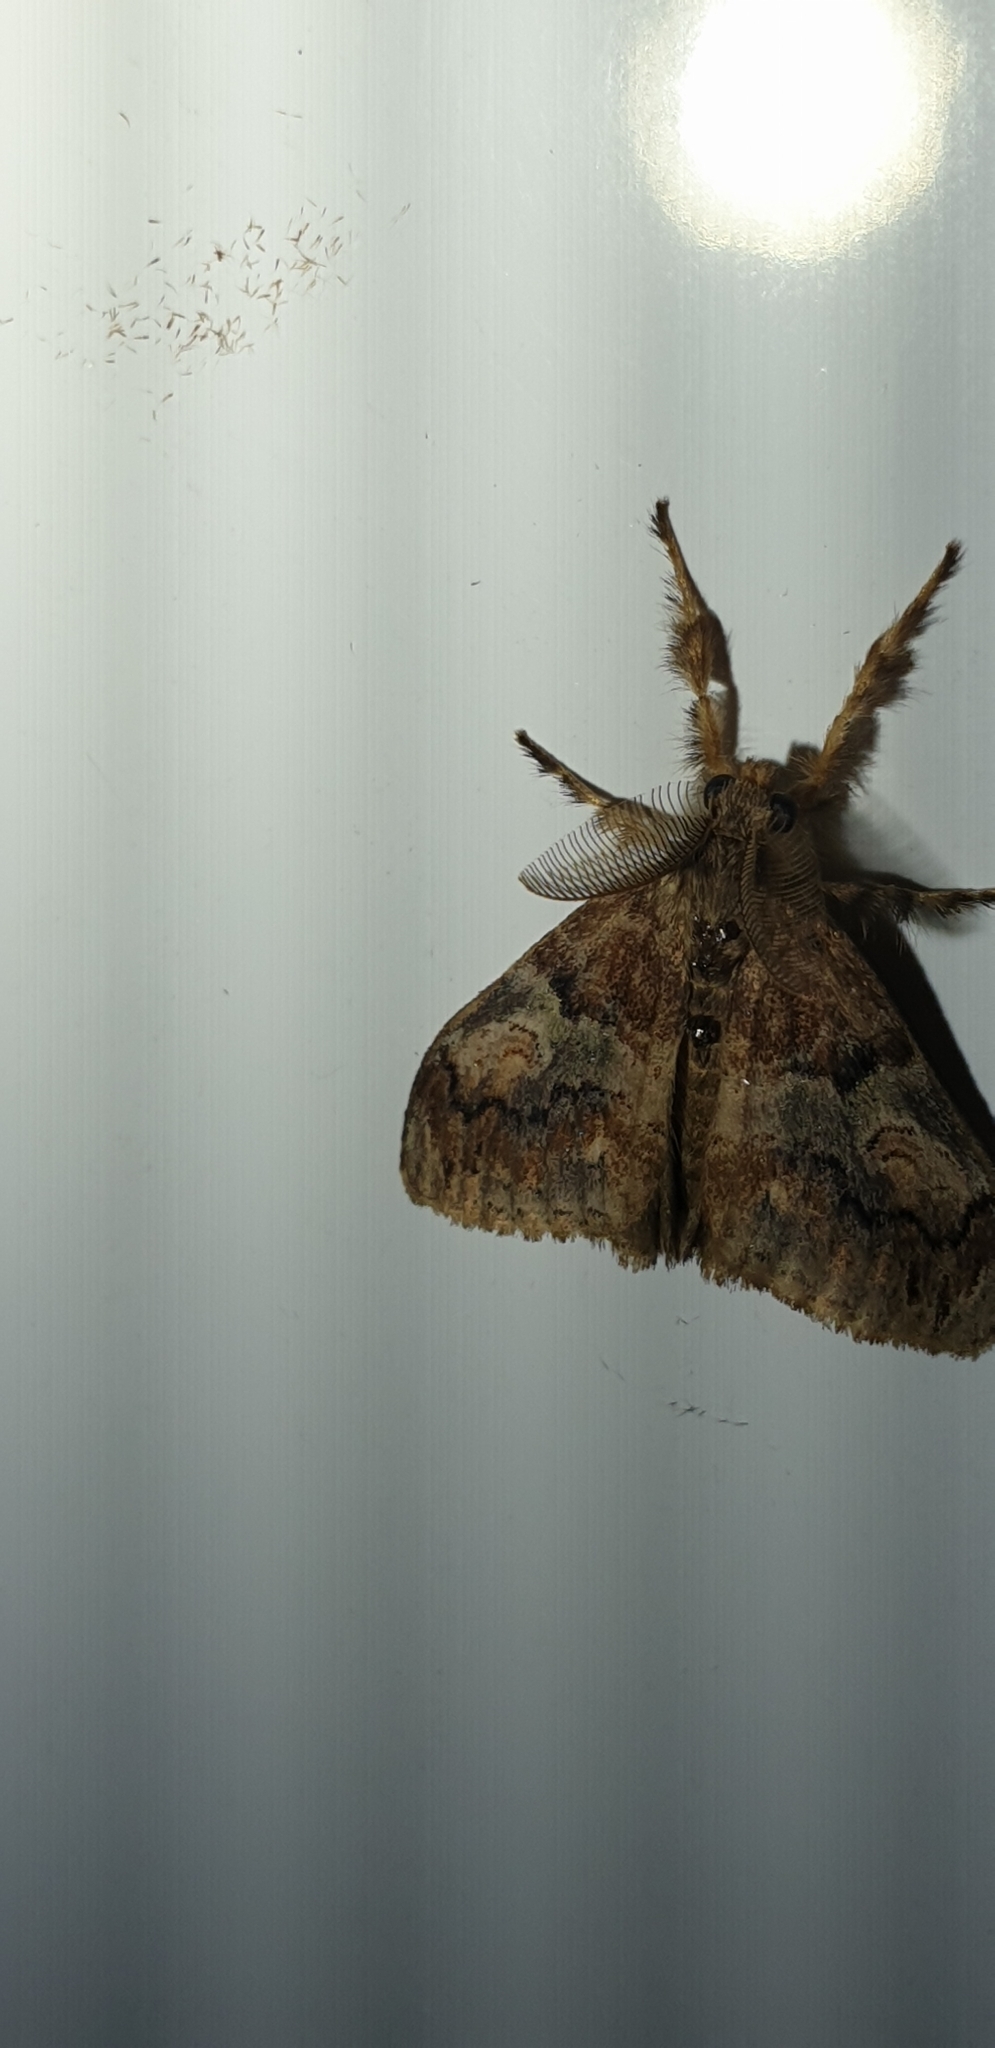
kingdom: Animalia
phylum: Arthropoda
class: Insecta
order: Lepidoptera
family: Erebidae
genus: Orgyia
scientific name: Orgyia australis
